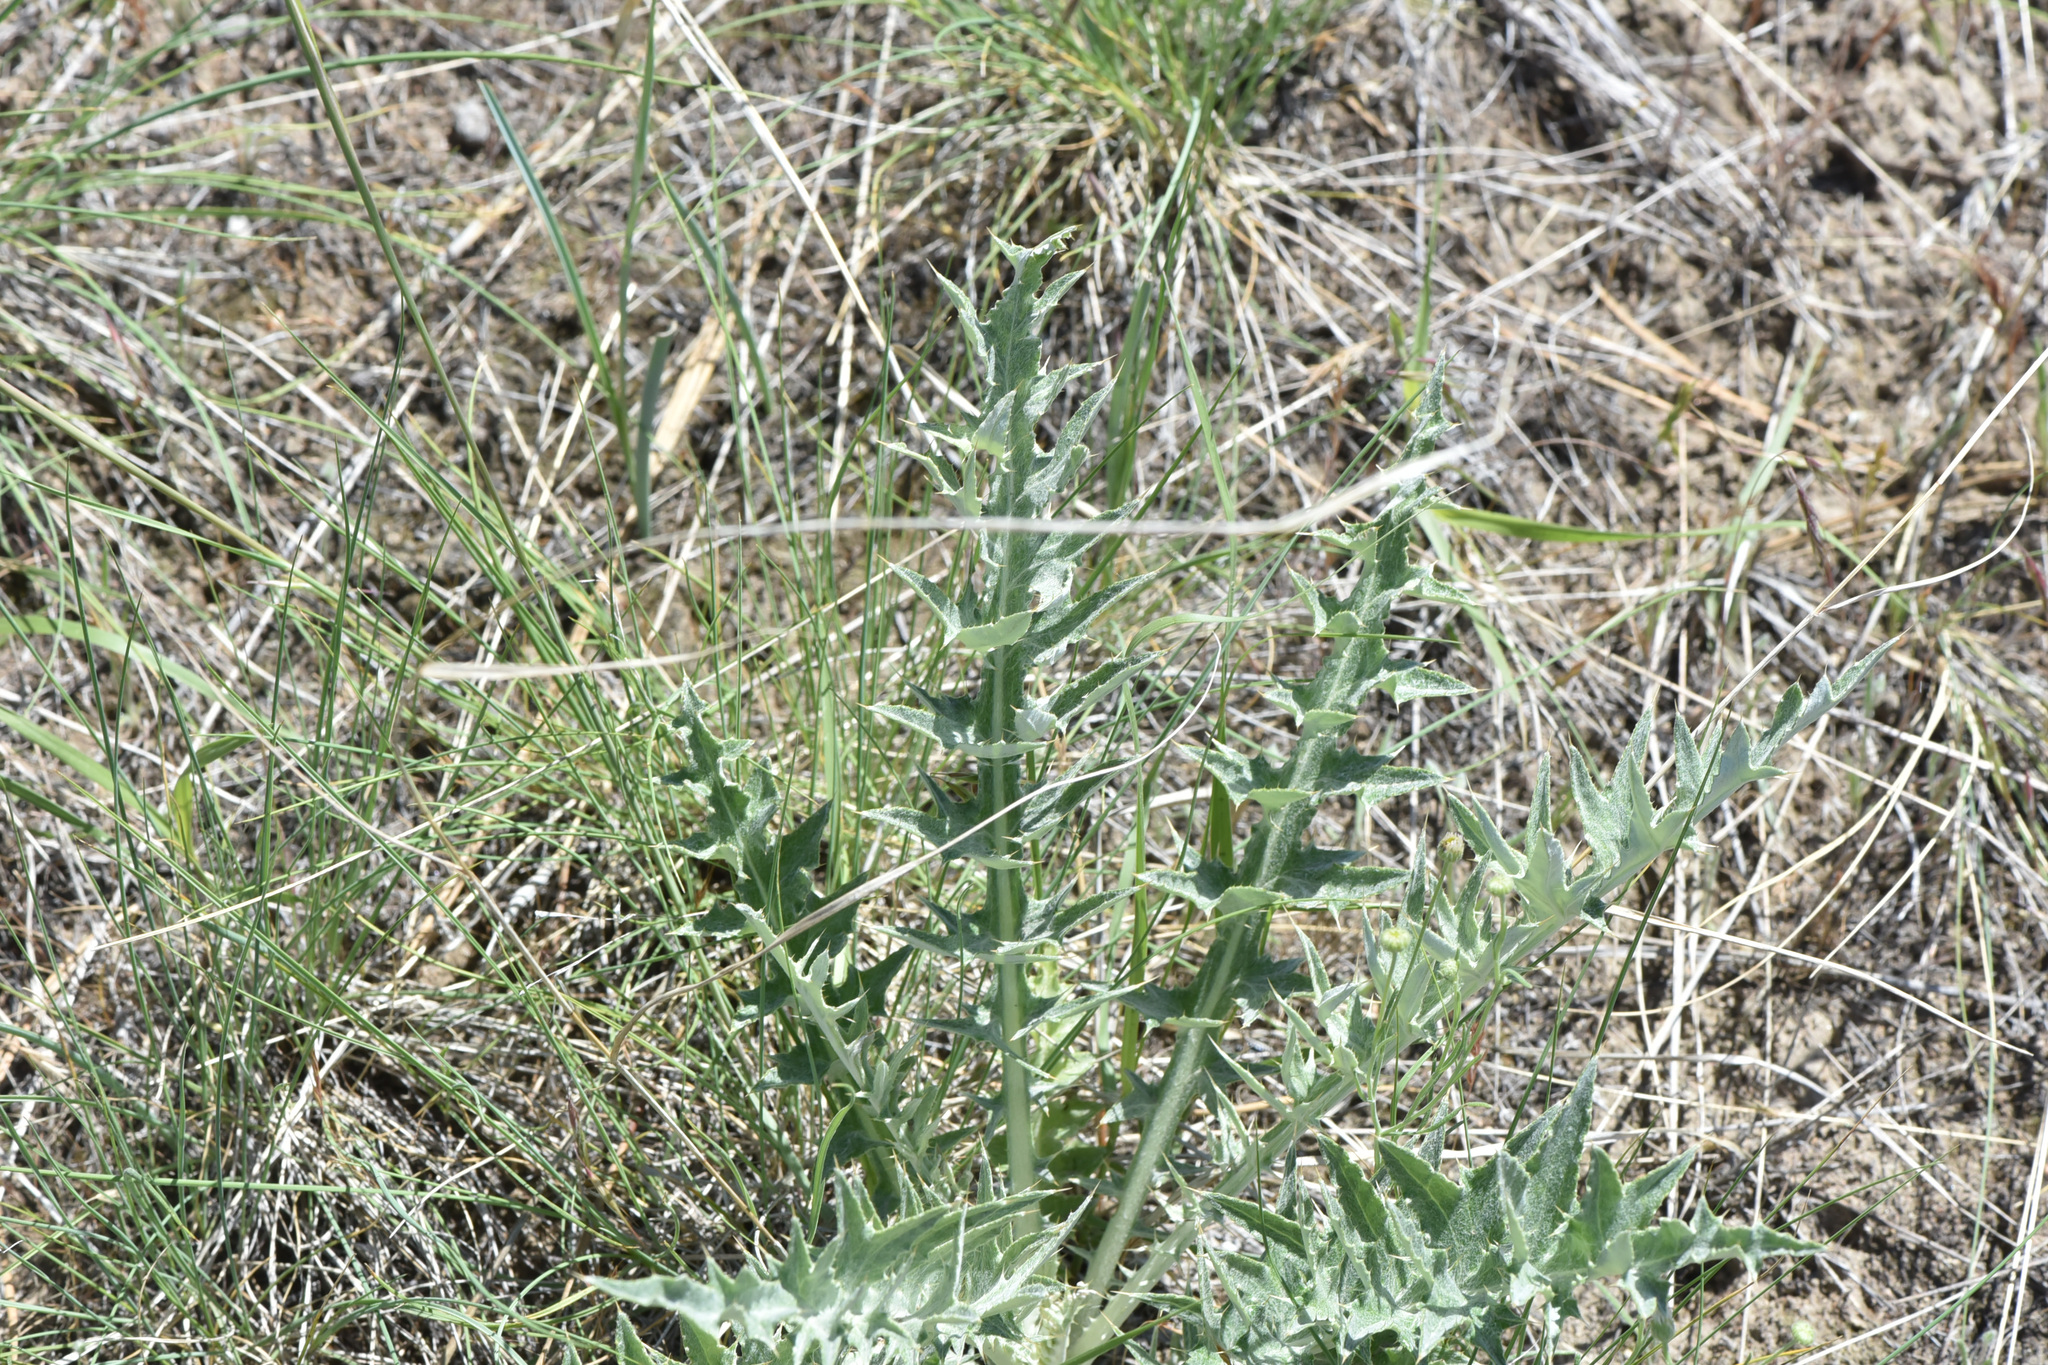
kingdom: Plantae
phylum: Tracheophyta
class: Magnoliopsida
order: Asterales
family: Asteraceae
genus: Cirsium
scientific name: Cirsium undulatum
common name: Pasture thistle
